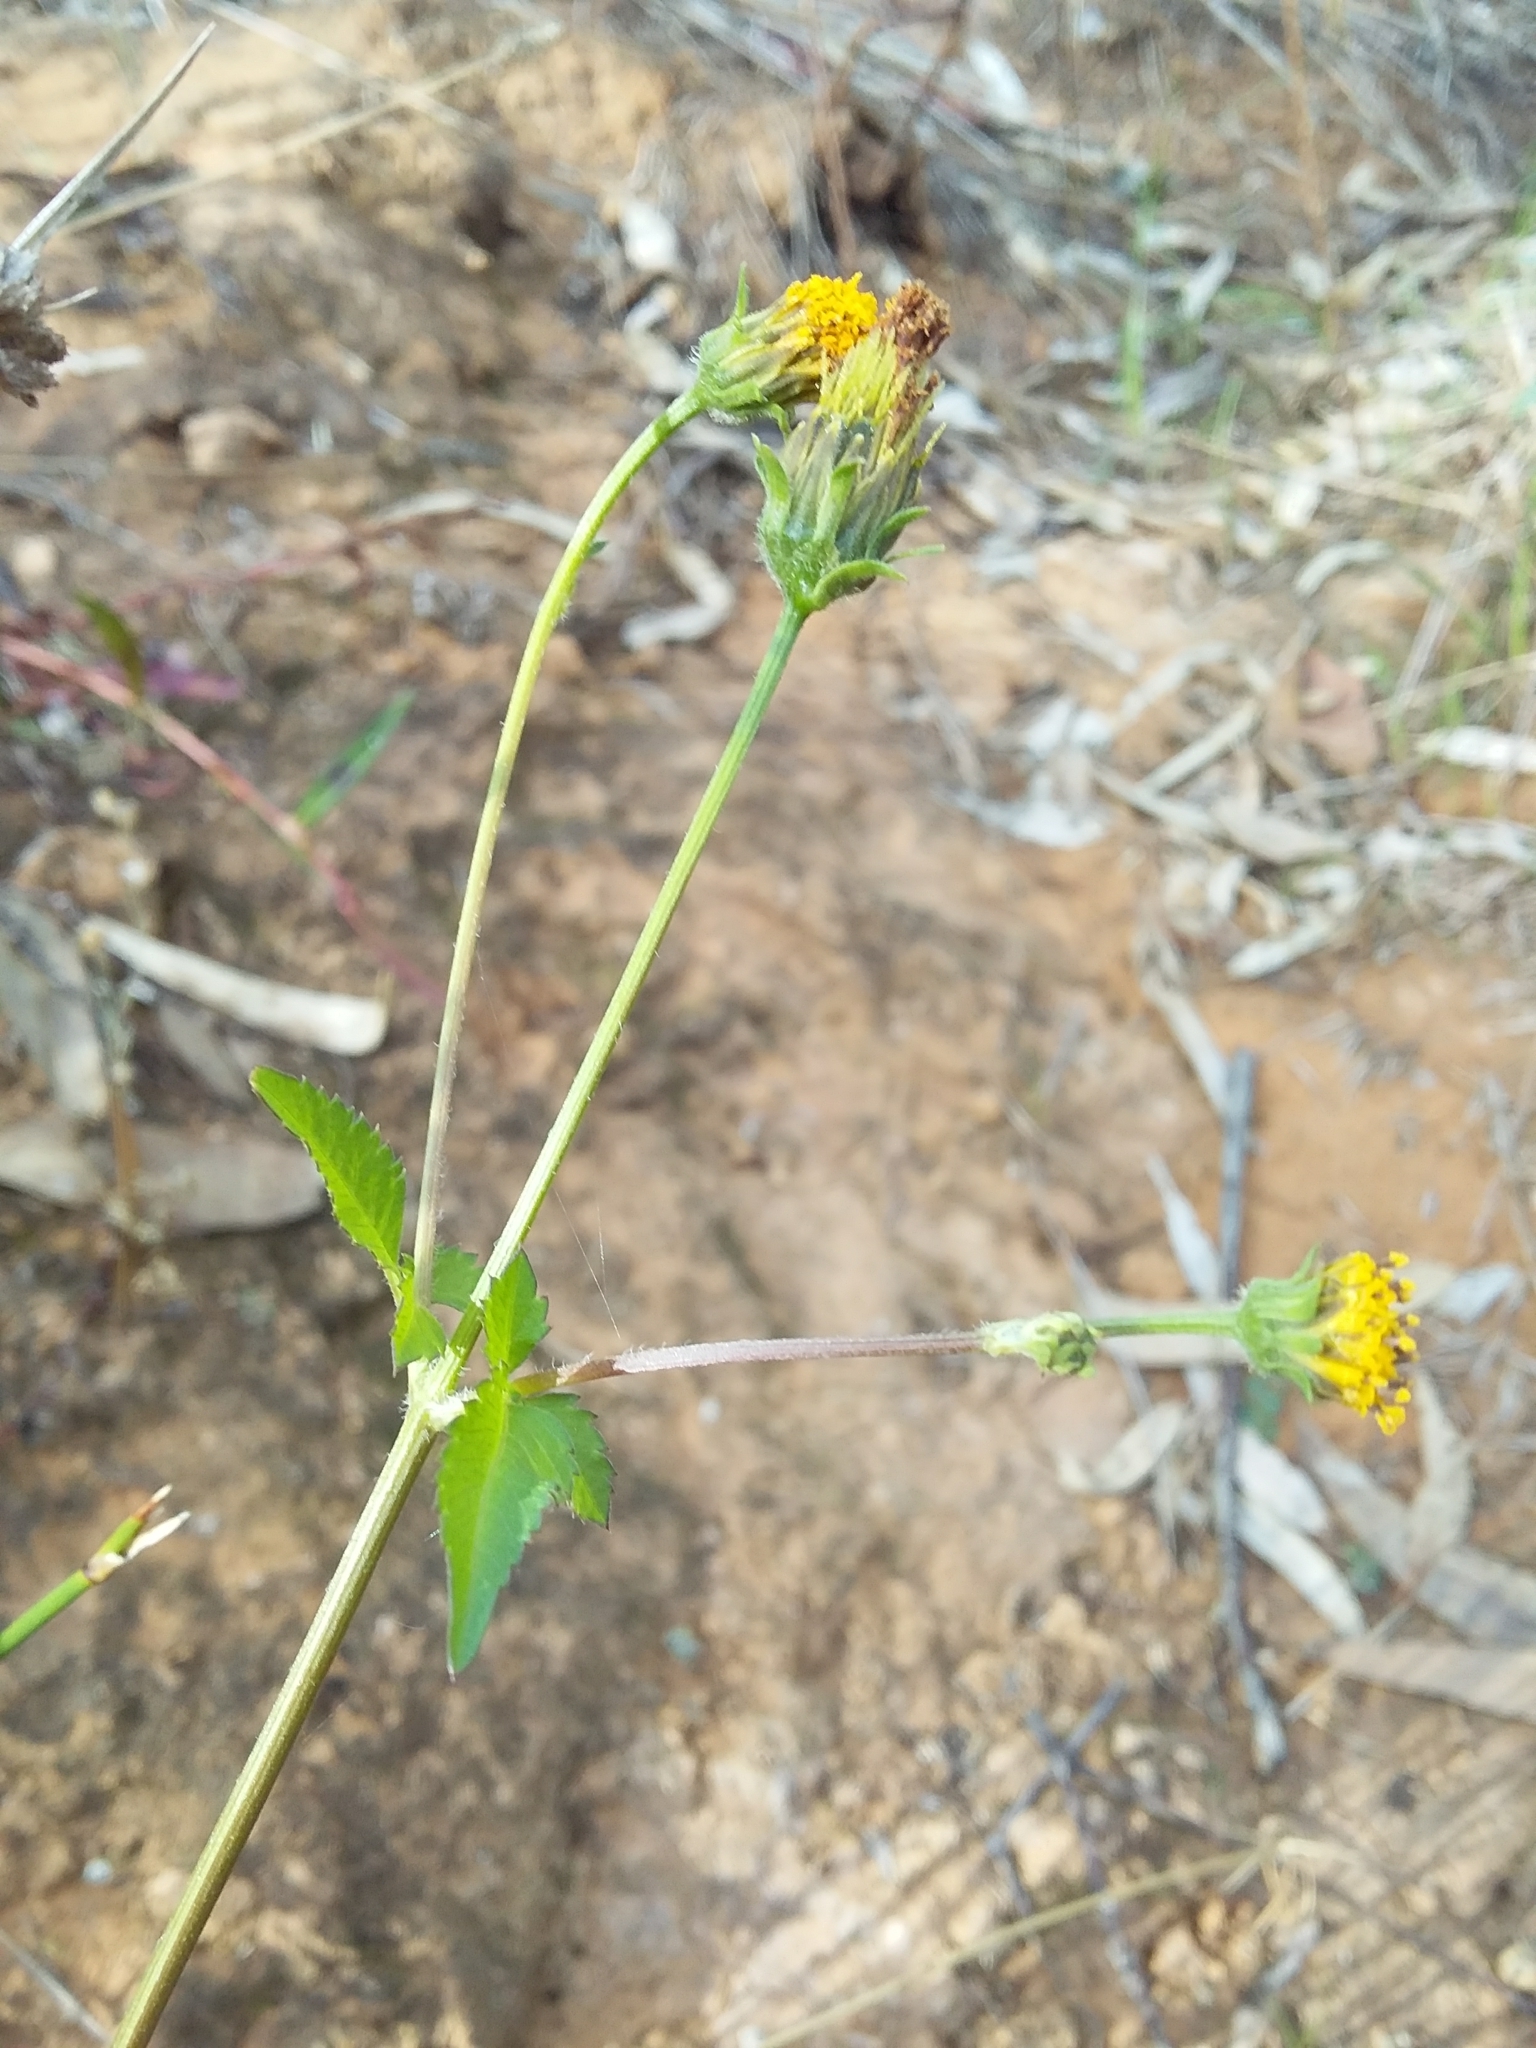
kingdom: Plantae
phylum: Tracheophyta
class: Magnoliopsida
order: Asterales
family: Asteraceae
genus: Bidens
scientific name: Bidens pilosa
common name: Black-jack
